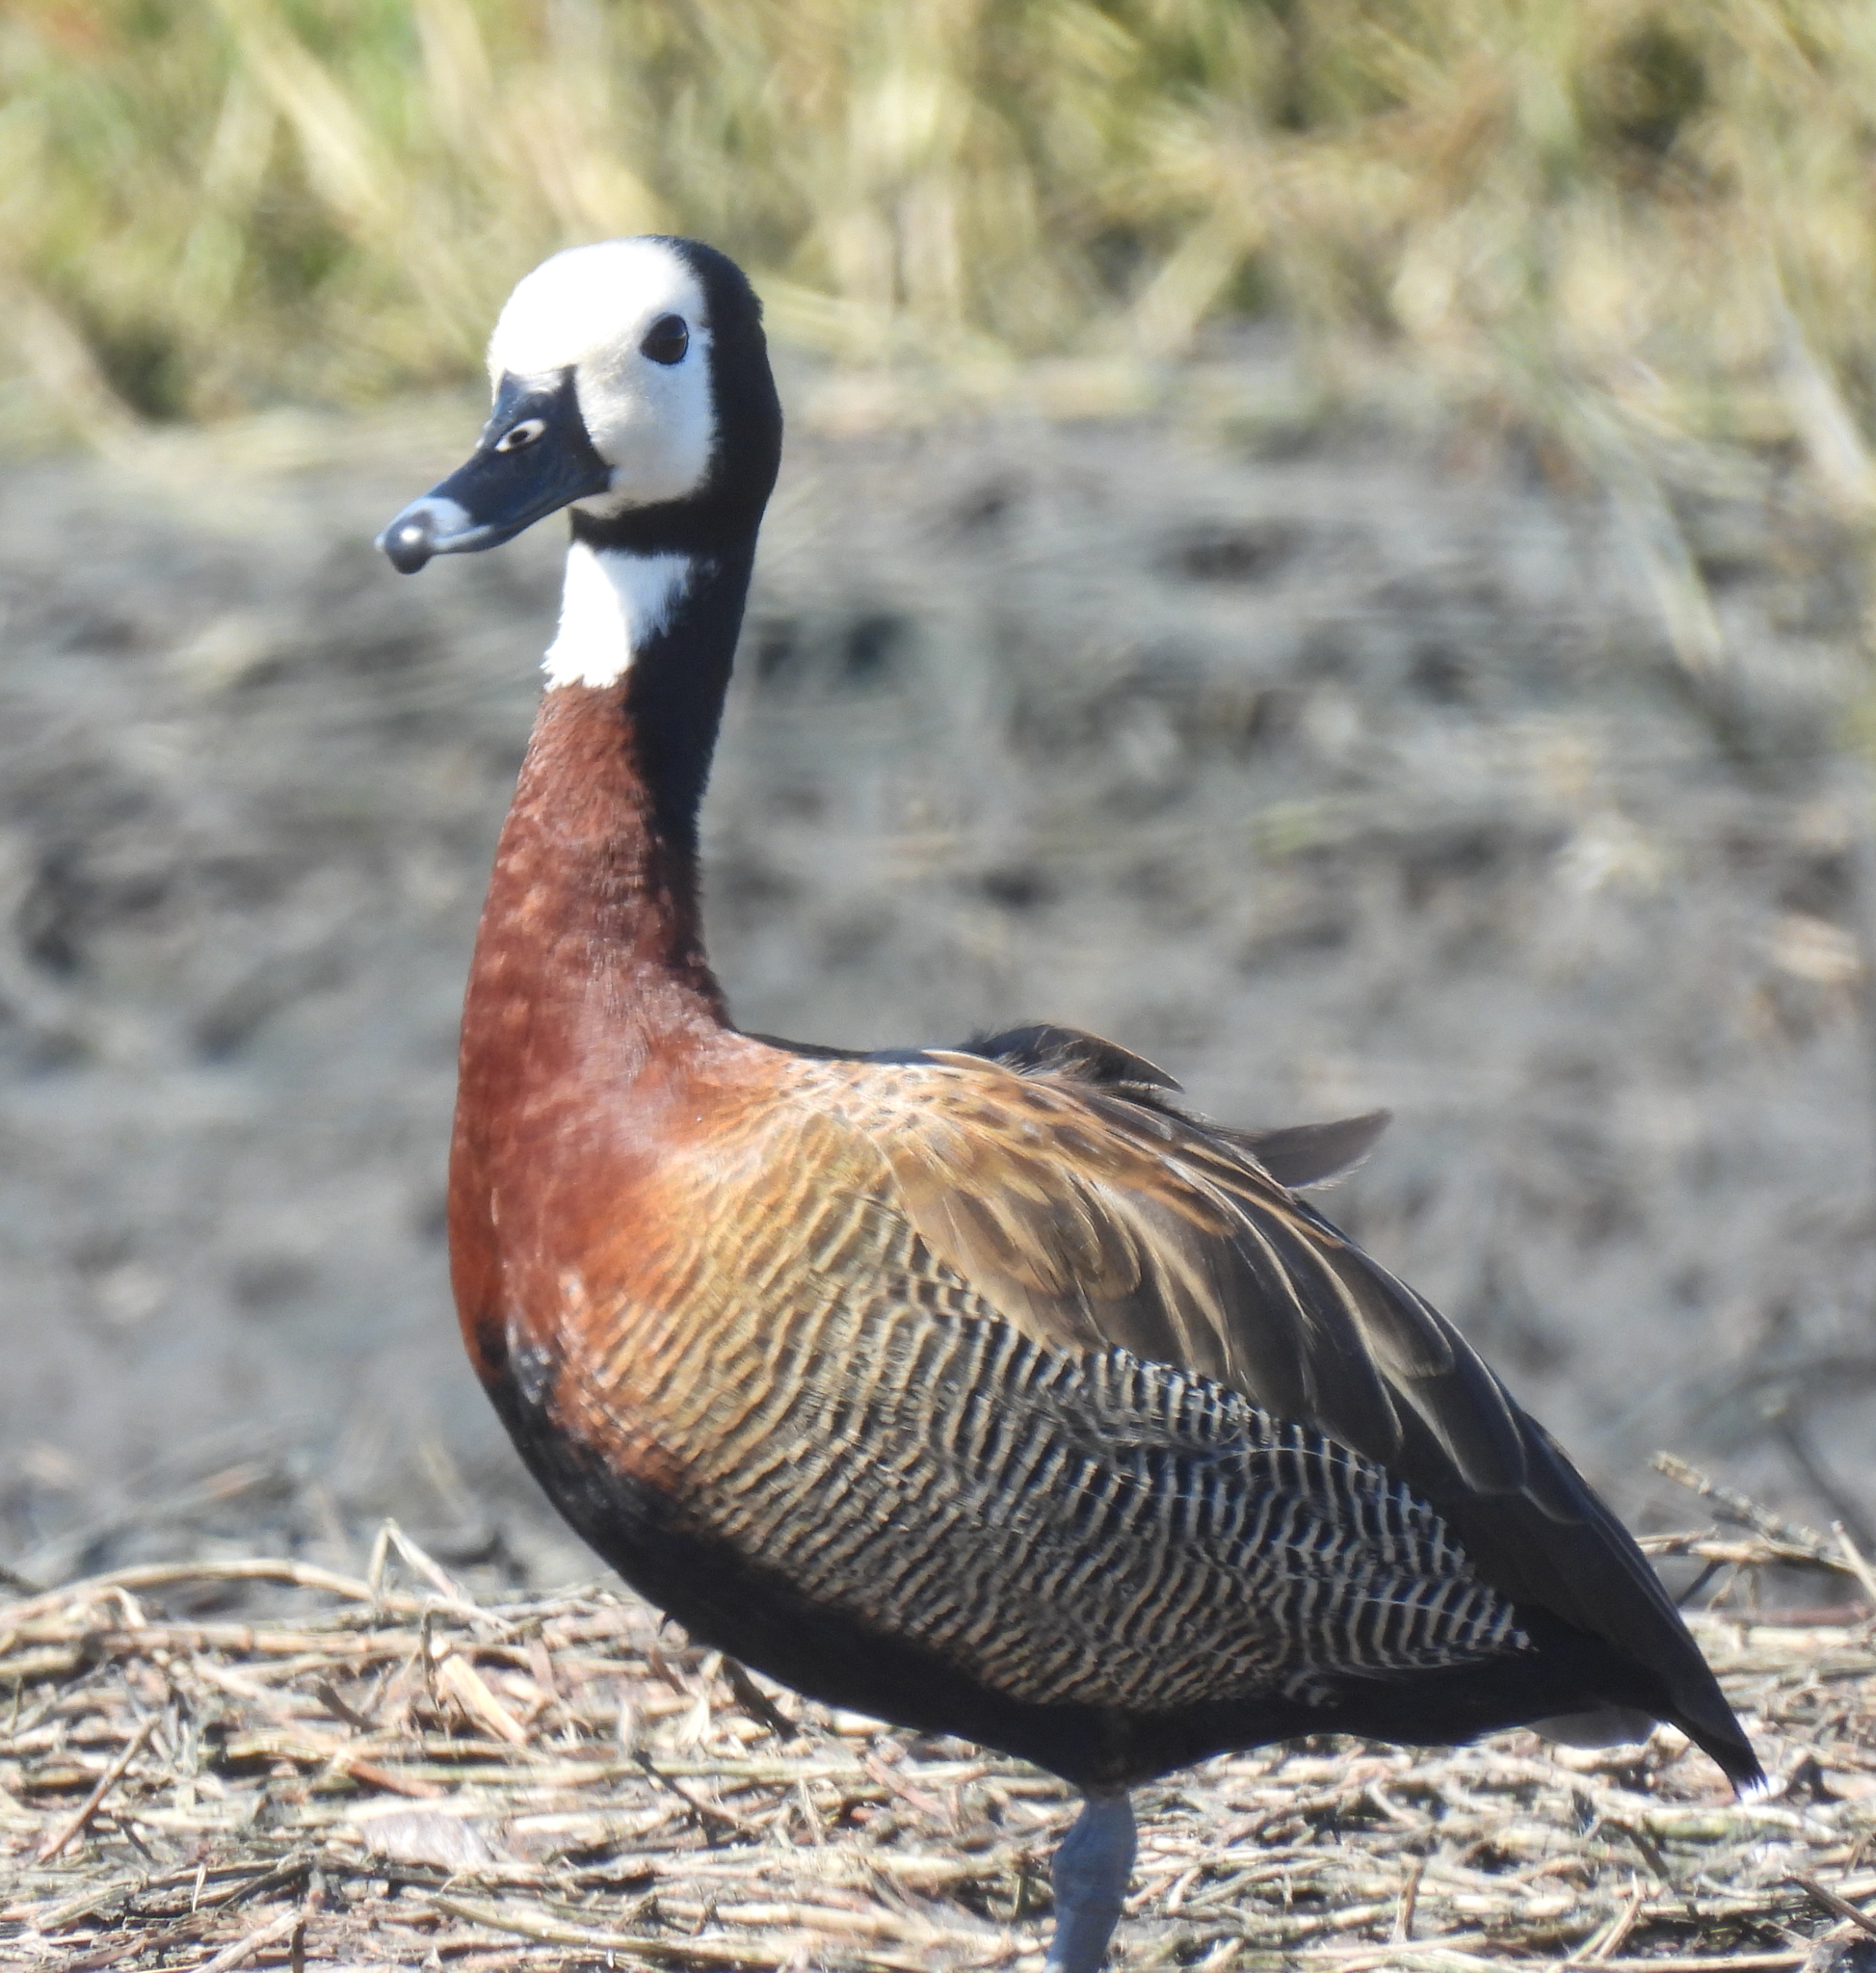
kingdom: Animalia
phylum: Chordata
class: Aves
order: Anseriformes
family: Anatidae
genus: Dendrocygna
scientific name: Dendrocygna viduata
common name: White-faced whistling duck
